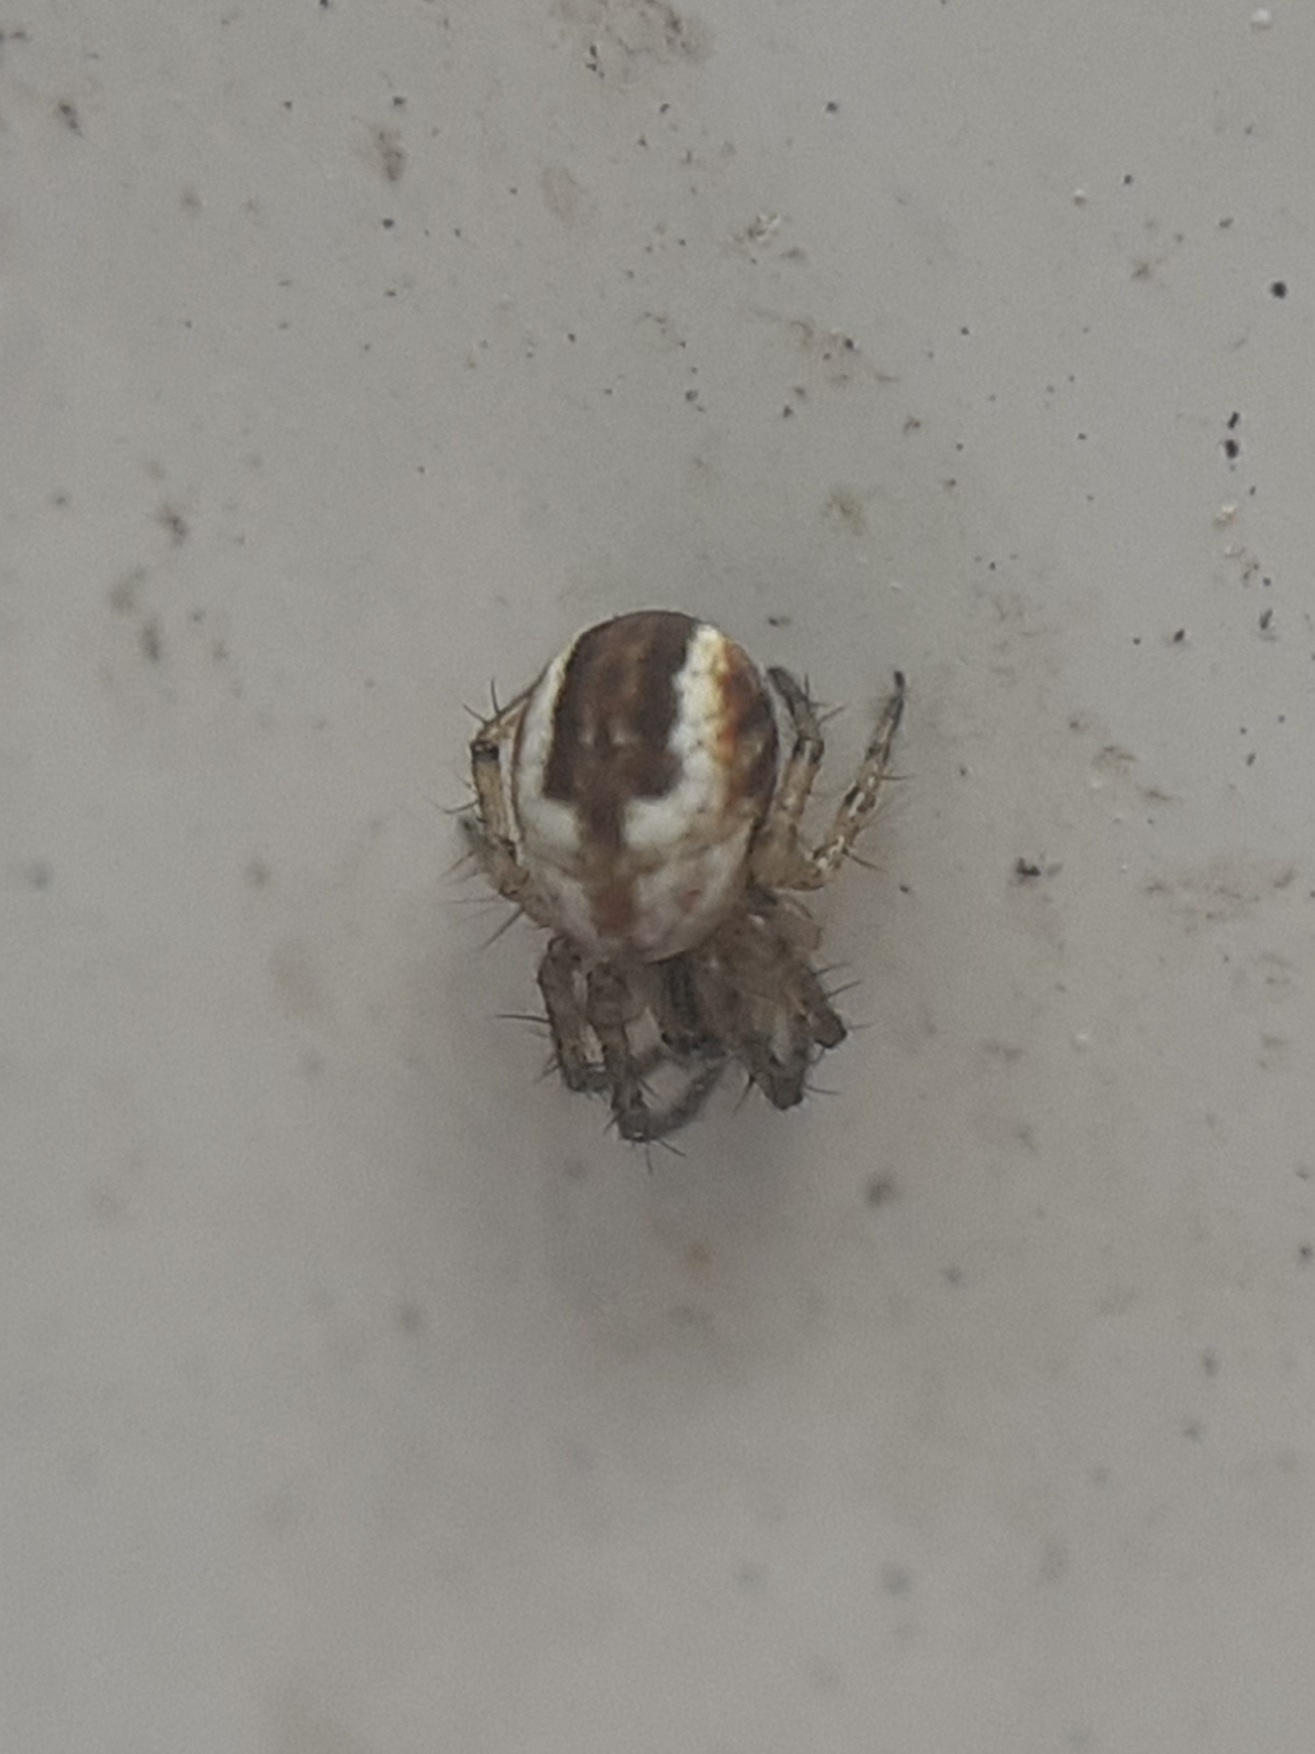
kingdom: Animalia
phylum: Arthropoda
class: Arachnida
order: Araneae
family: Araneidae
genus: Mangora
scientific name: Mangora acalypha
